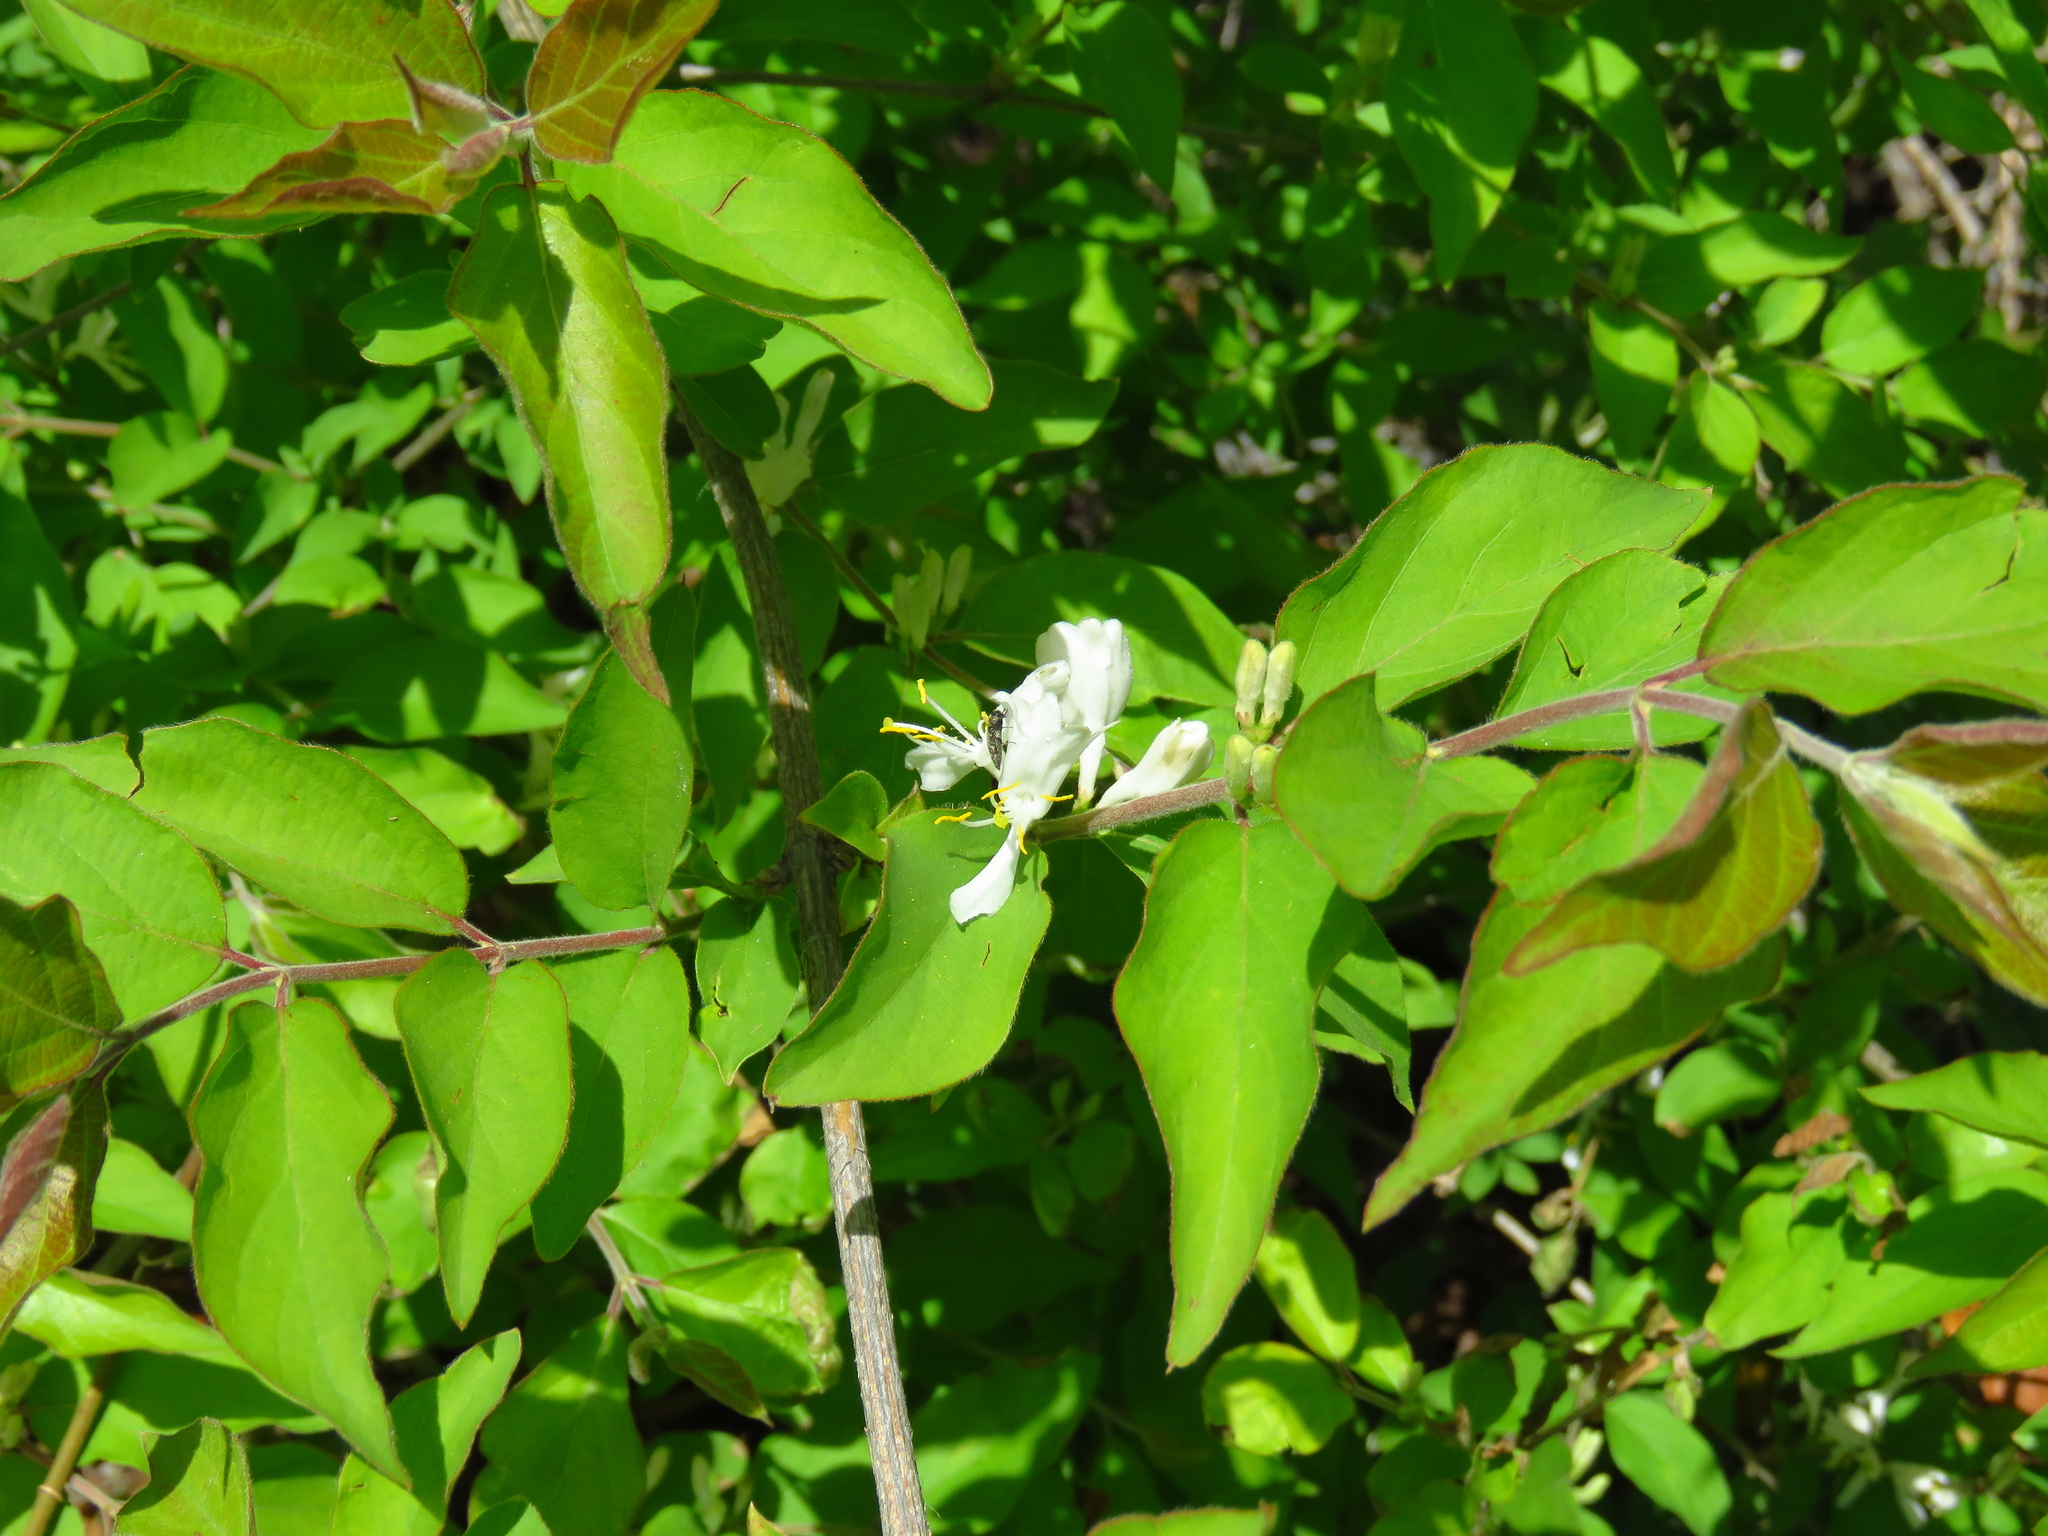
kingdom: Plantae
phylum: Tracheophyta
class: Magnoliopsida
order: Dipsacales
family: Caprifoliaceae
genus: Lonicera
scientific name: Lonicera maackii
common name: Amur honeysuckle
